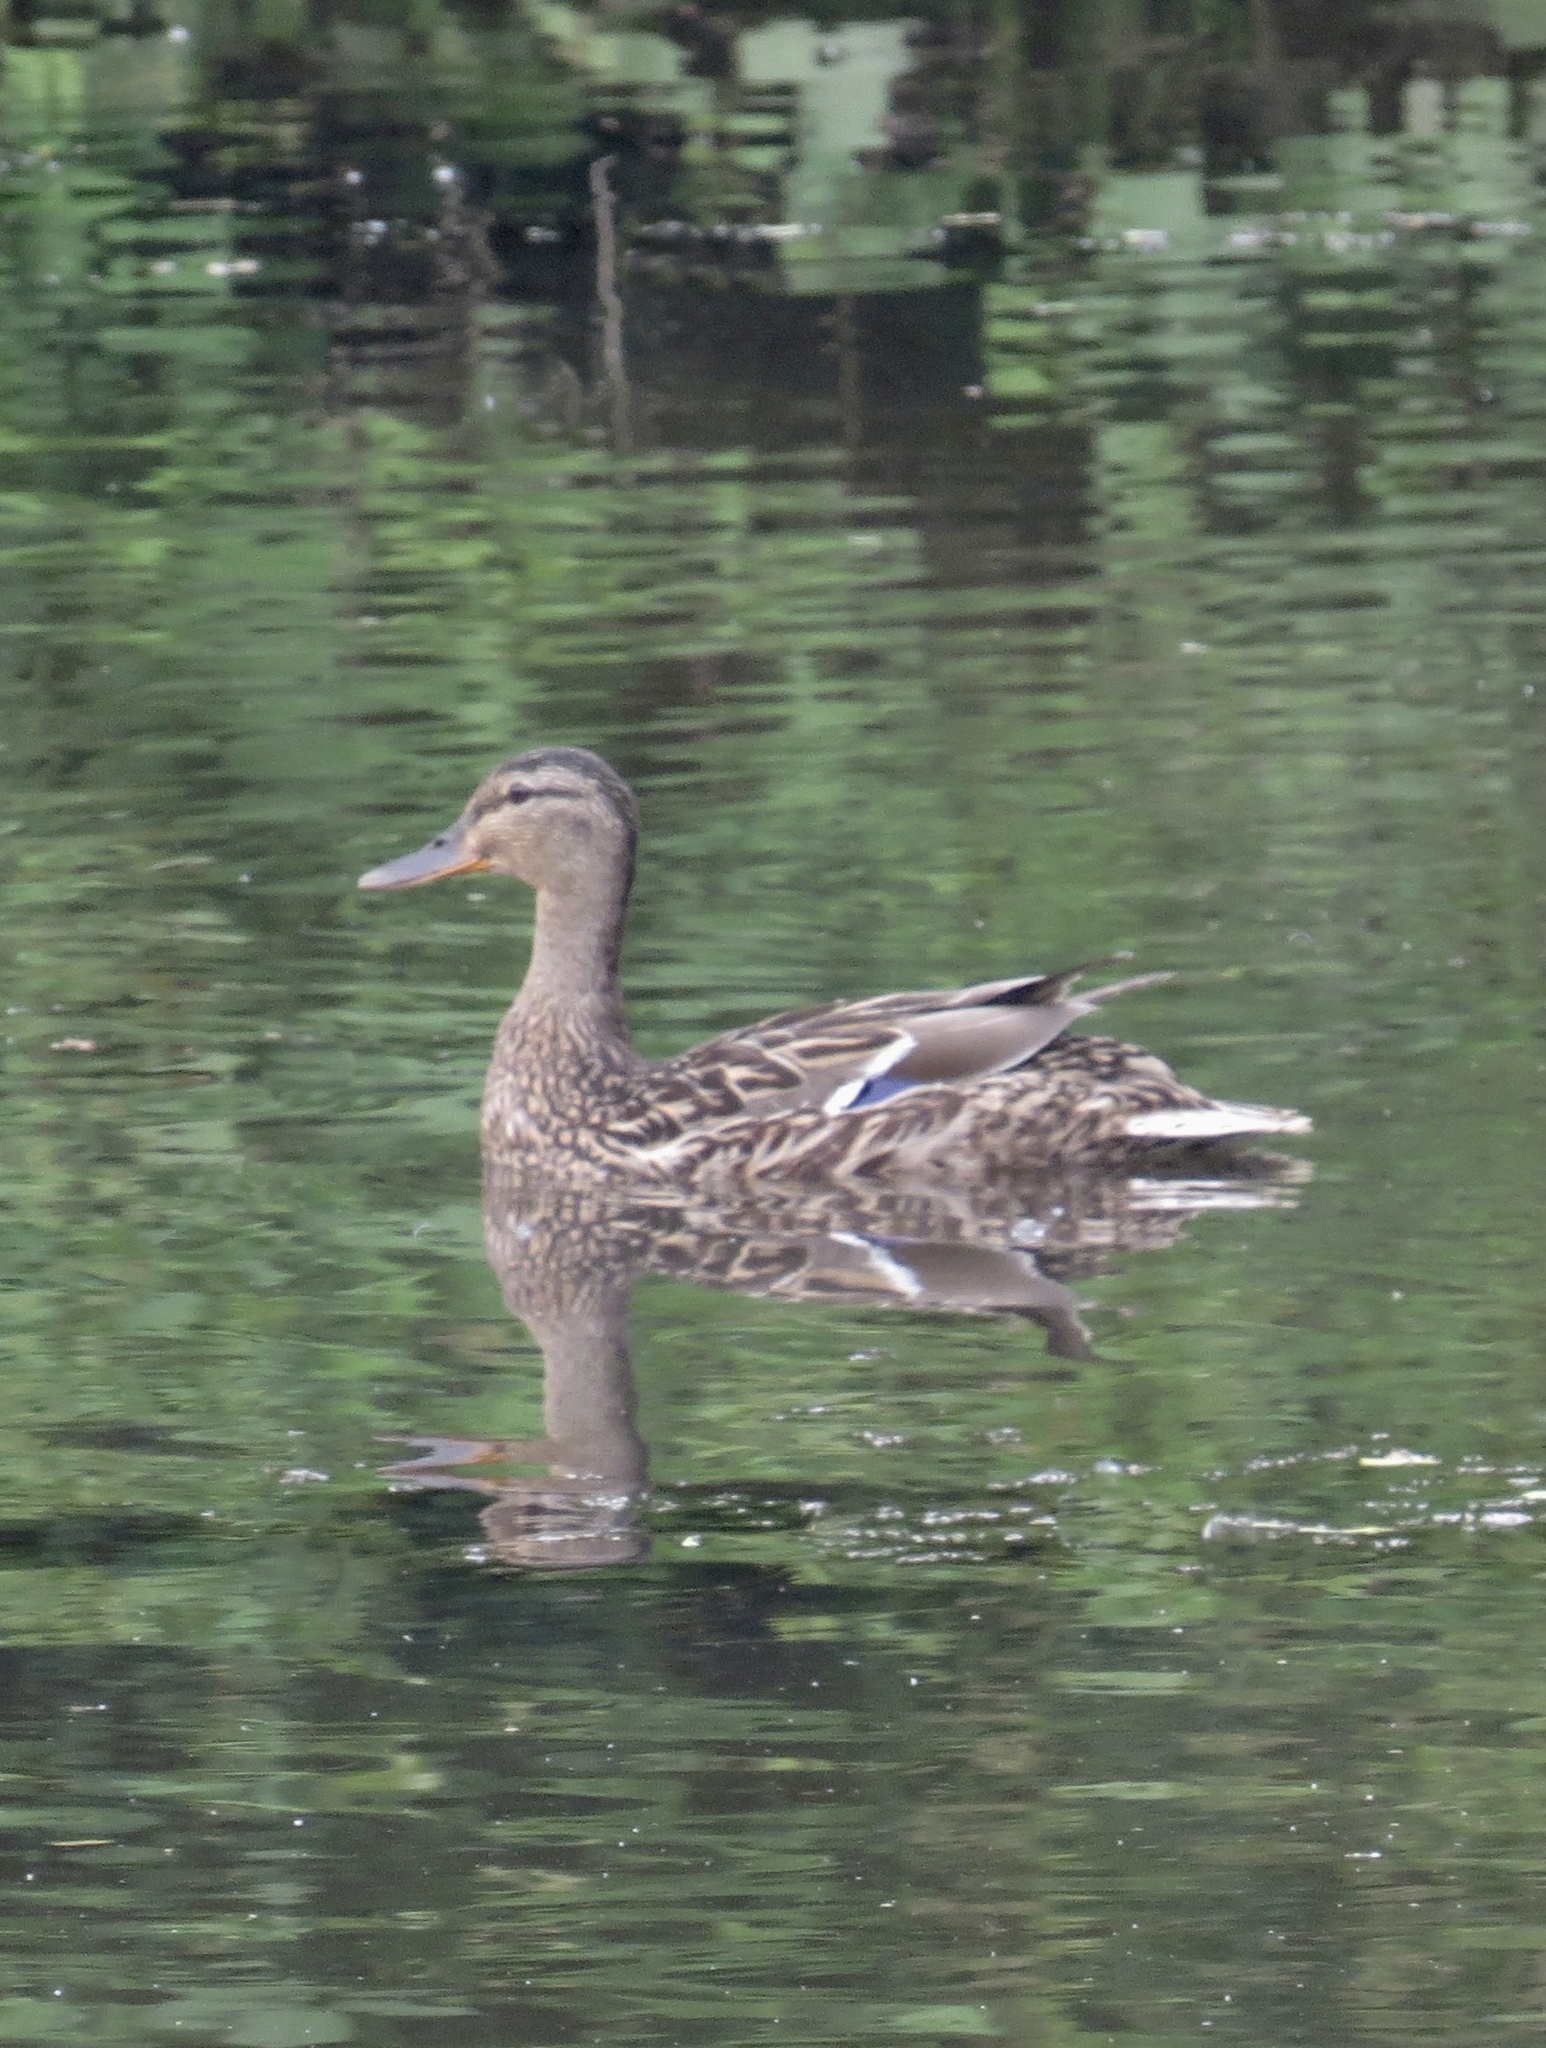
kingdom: Animalia
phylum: Chordata
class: Aves
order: Anseriformes
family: Anatidae
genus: Anas
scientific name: Anas platyrhynchos
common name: Mallard
